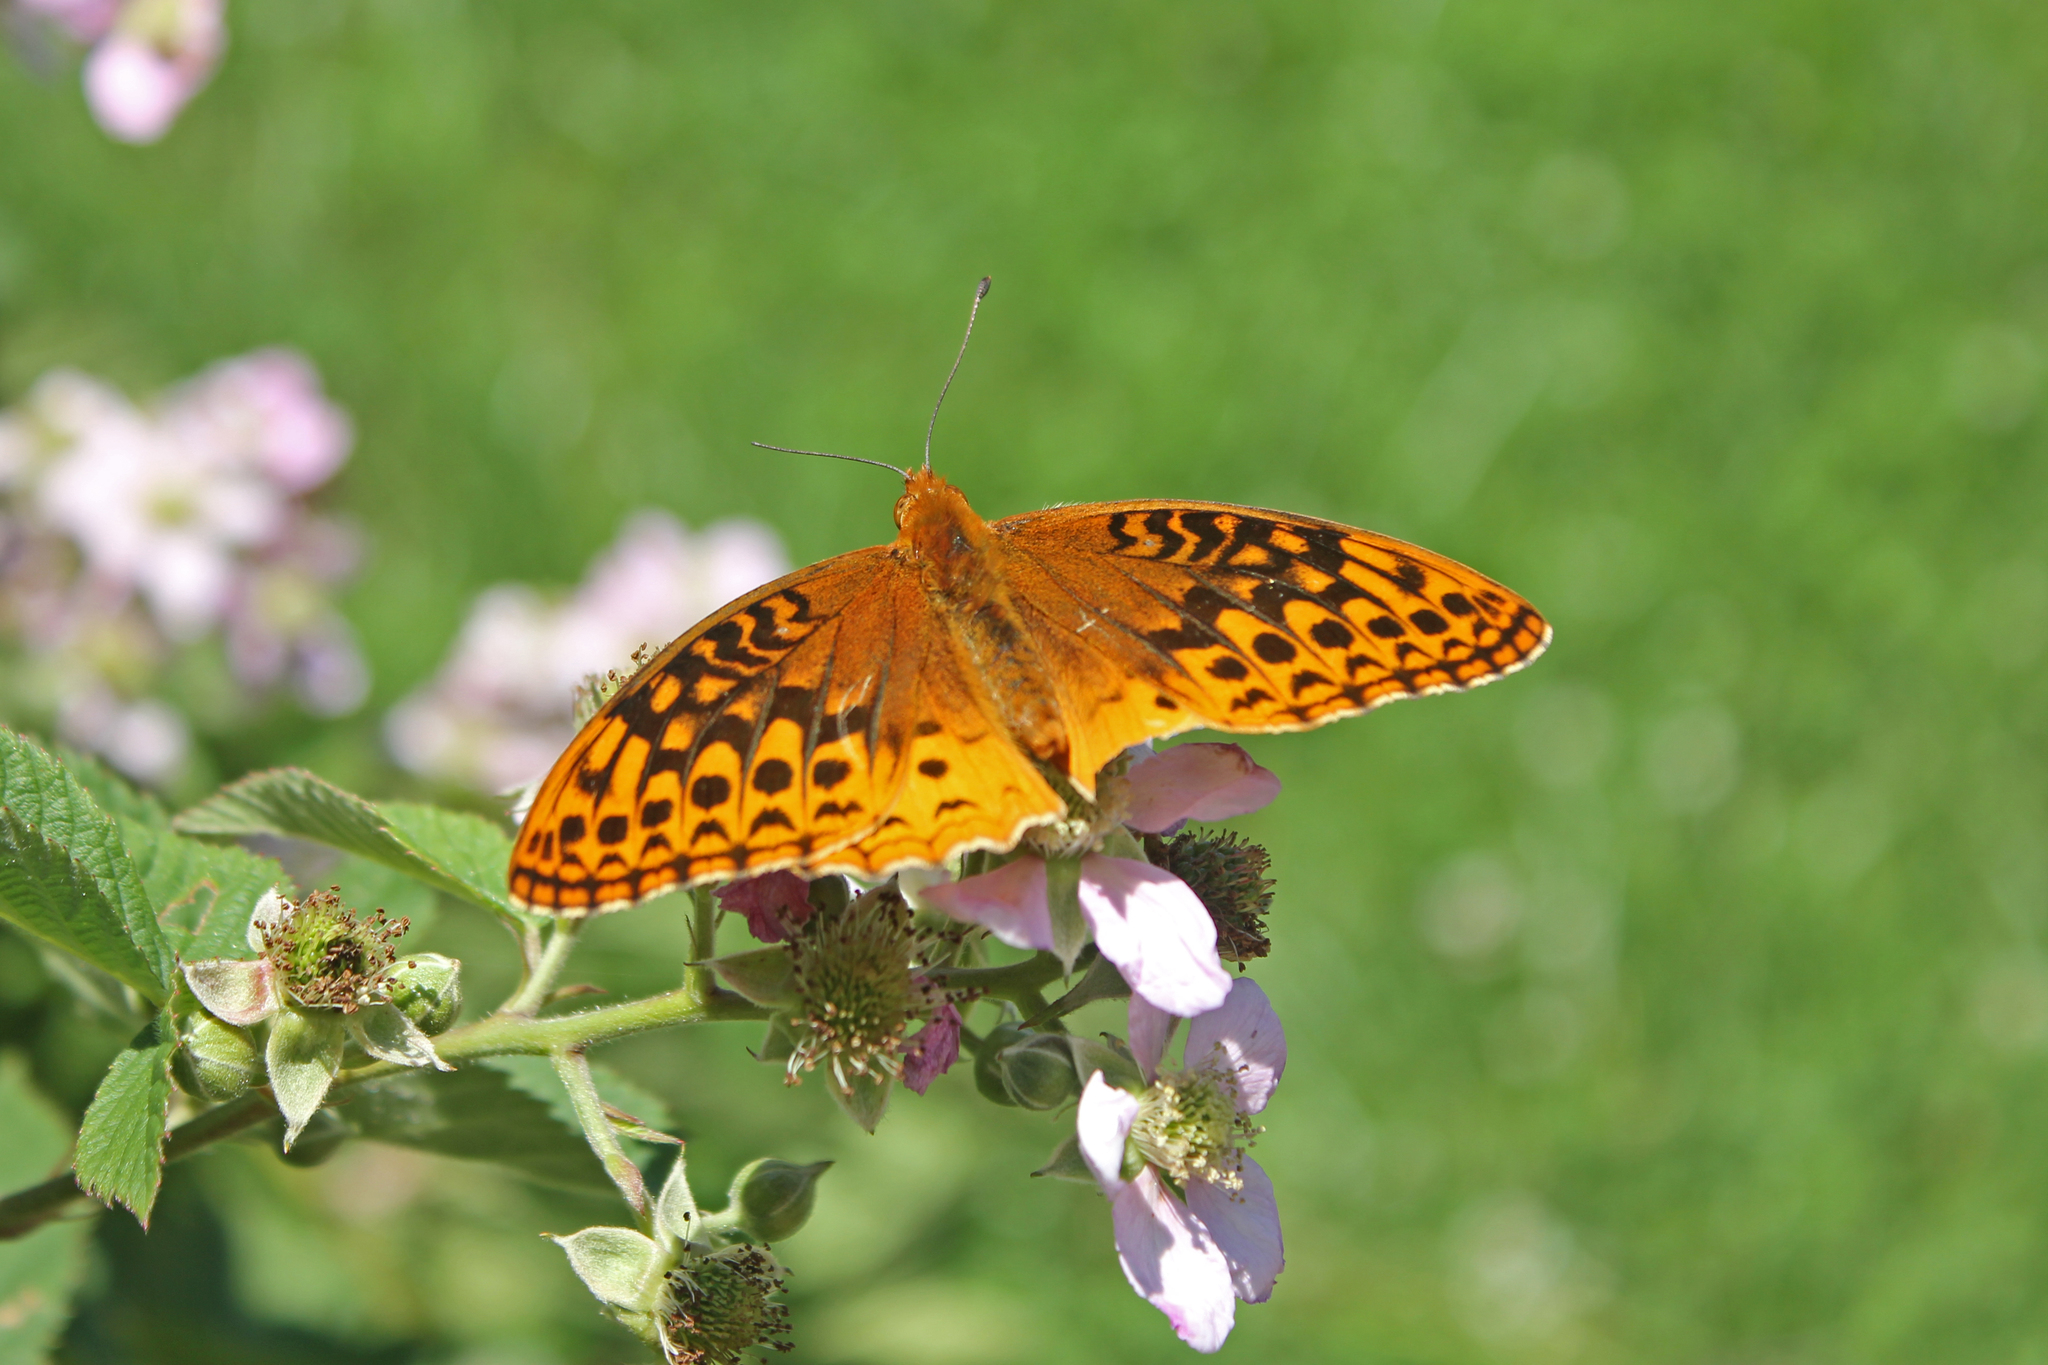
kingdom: Animalia
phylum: Arthropoda
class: Insecta
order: Lepidoptera
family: Nymphalidae
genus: Speyeria
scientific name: Speyeria cybele
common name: Great spangled fritillary
